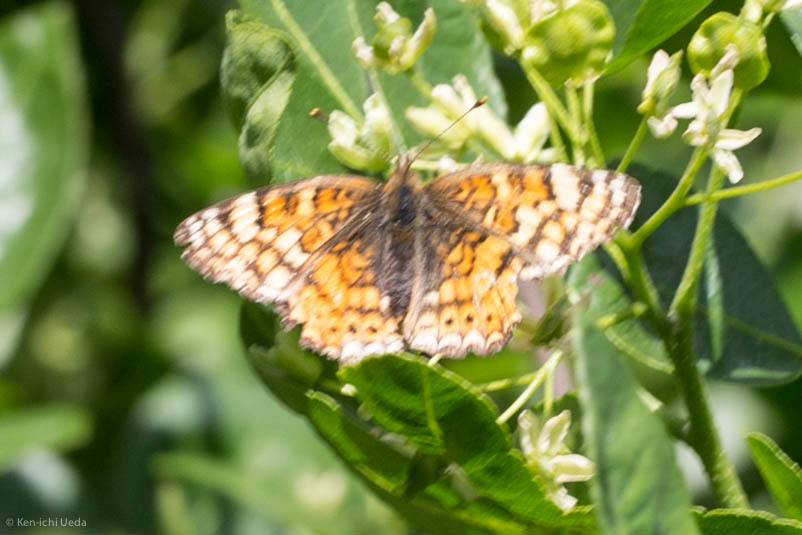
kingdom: Animalia
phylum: Arthropoda
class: Insecta
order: Lepidoptera
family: Nymphalidae
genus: Eresia
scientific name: Eresia aveyrona
